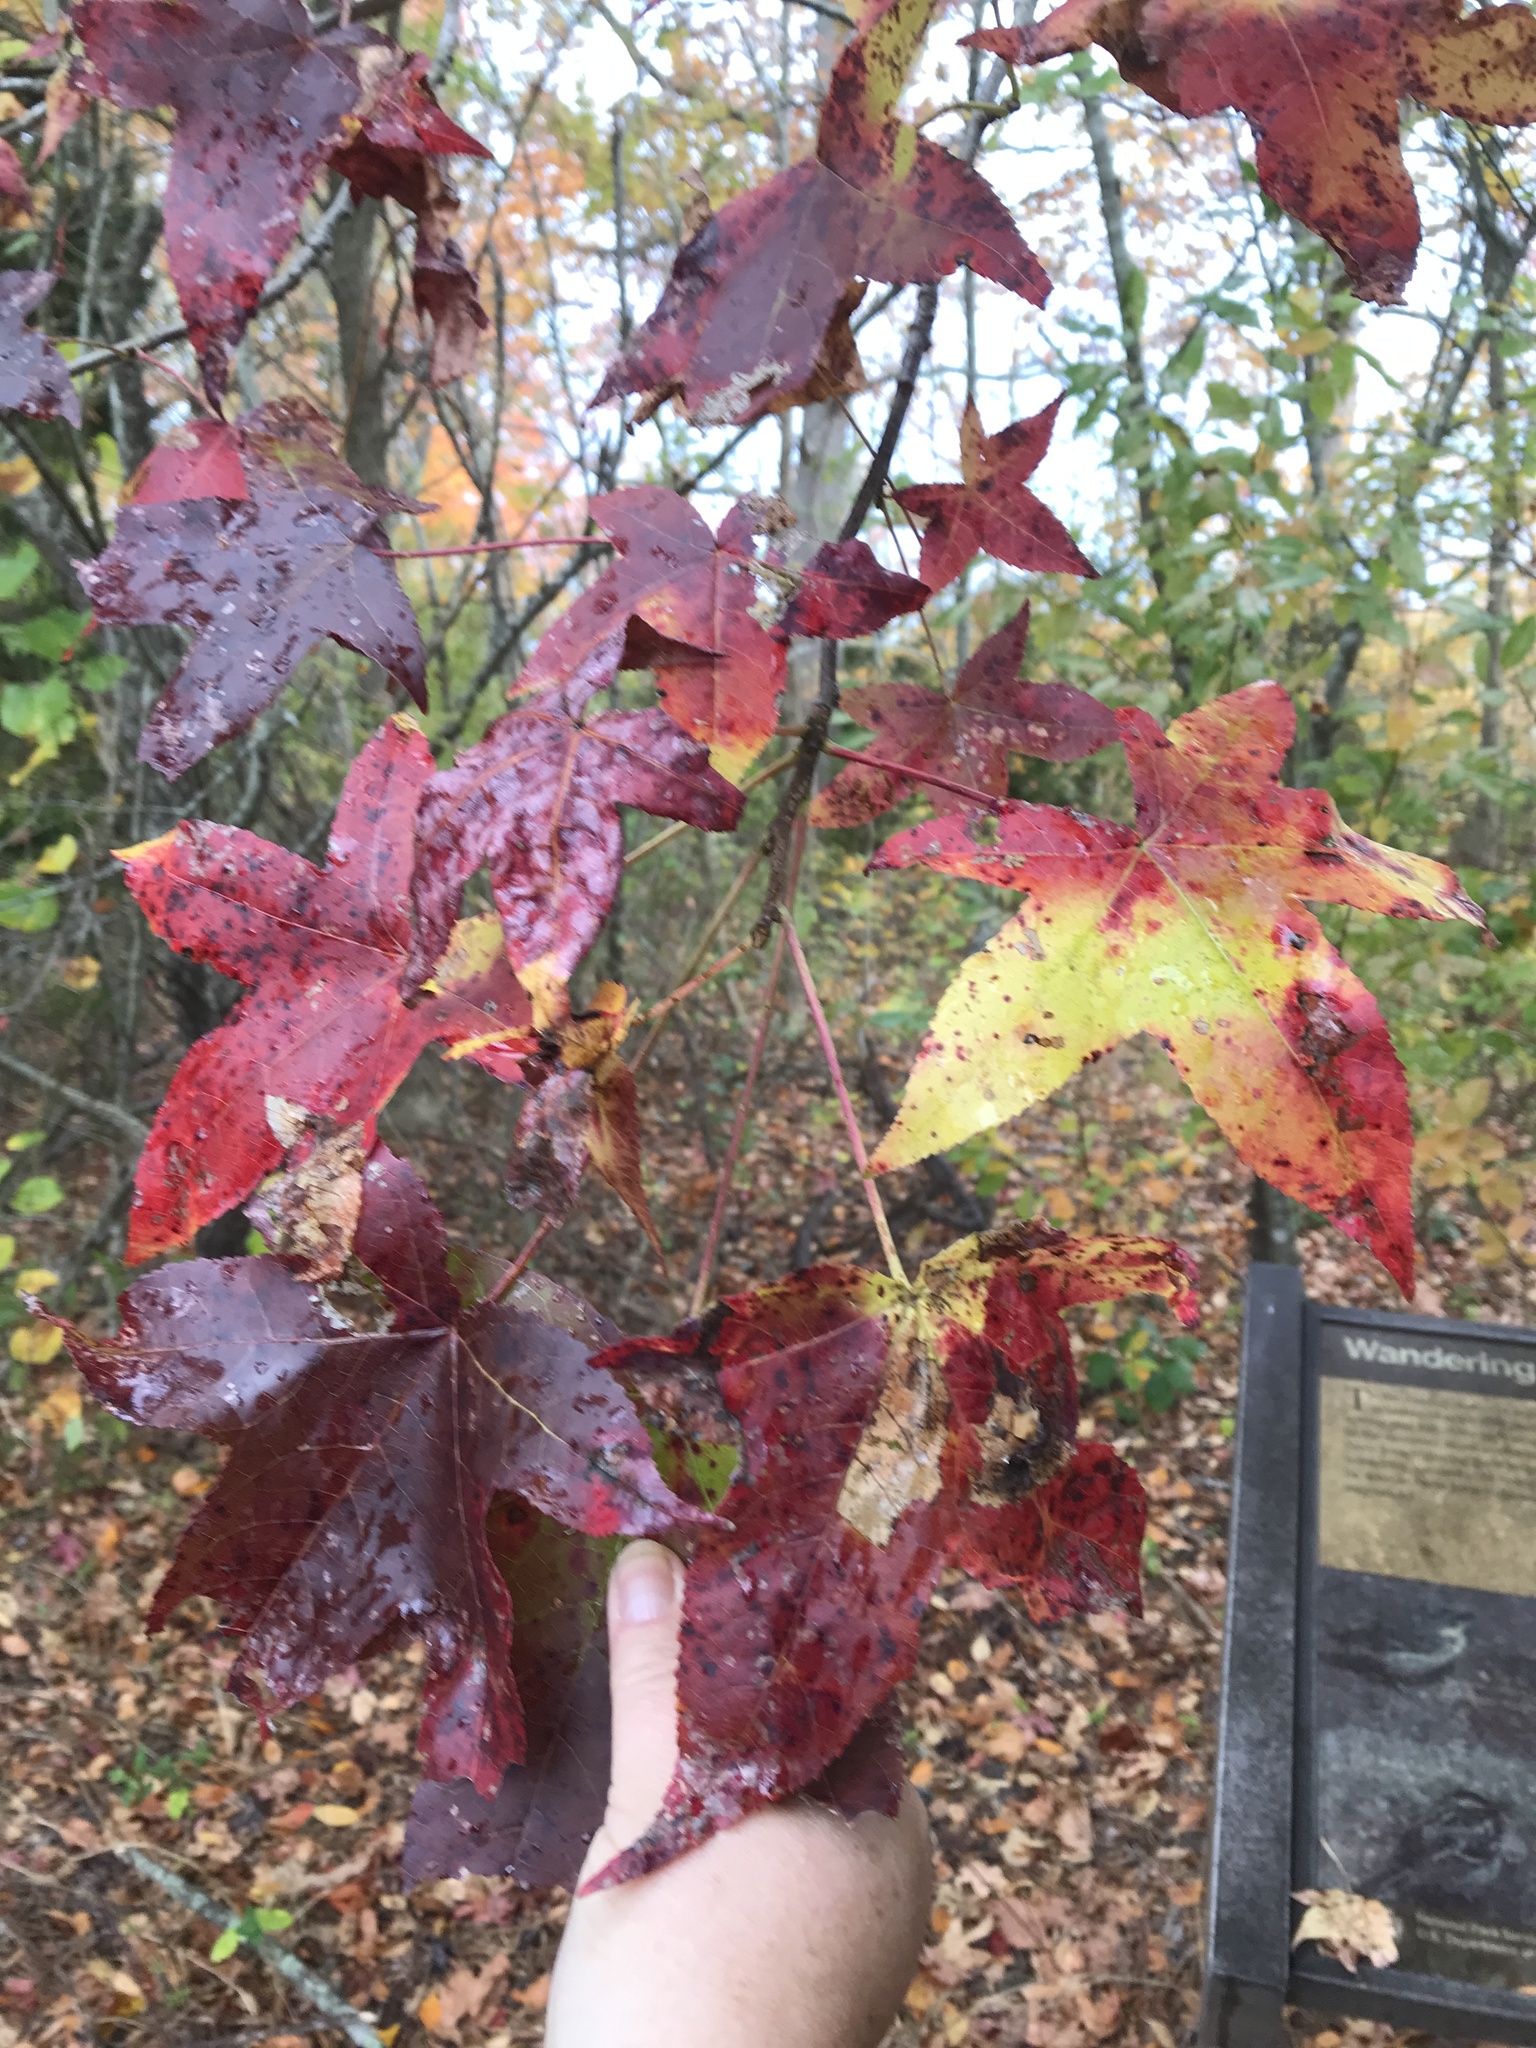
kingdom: Plantae
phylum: Tracheophyta
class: Magnoliopsida
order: Saxifragales
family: Altingiaceae
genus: Liquidambar
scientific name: Liquidambar styraciflua
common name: Sweet gum
